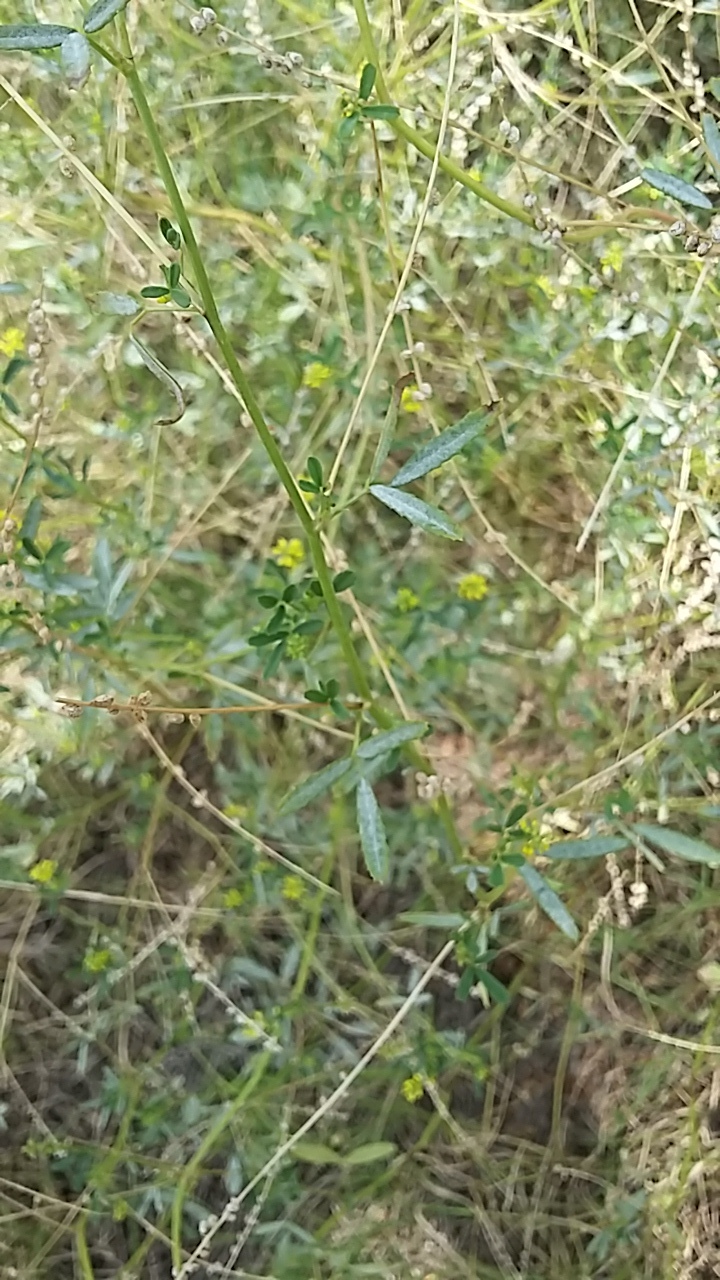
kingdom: Plantae
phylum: Tracheophyta
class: Magnoliopsida
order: Fabales
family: Fabaceae
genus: Melilotus
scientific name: Melilotus indicus
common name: Small melilot
